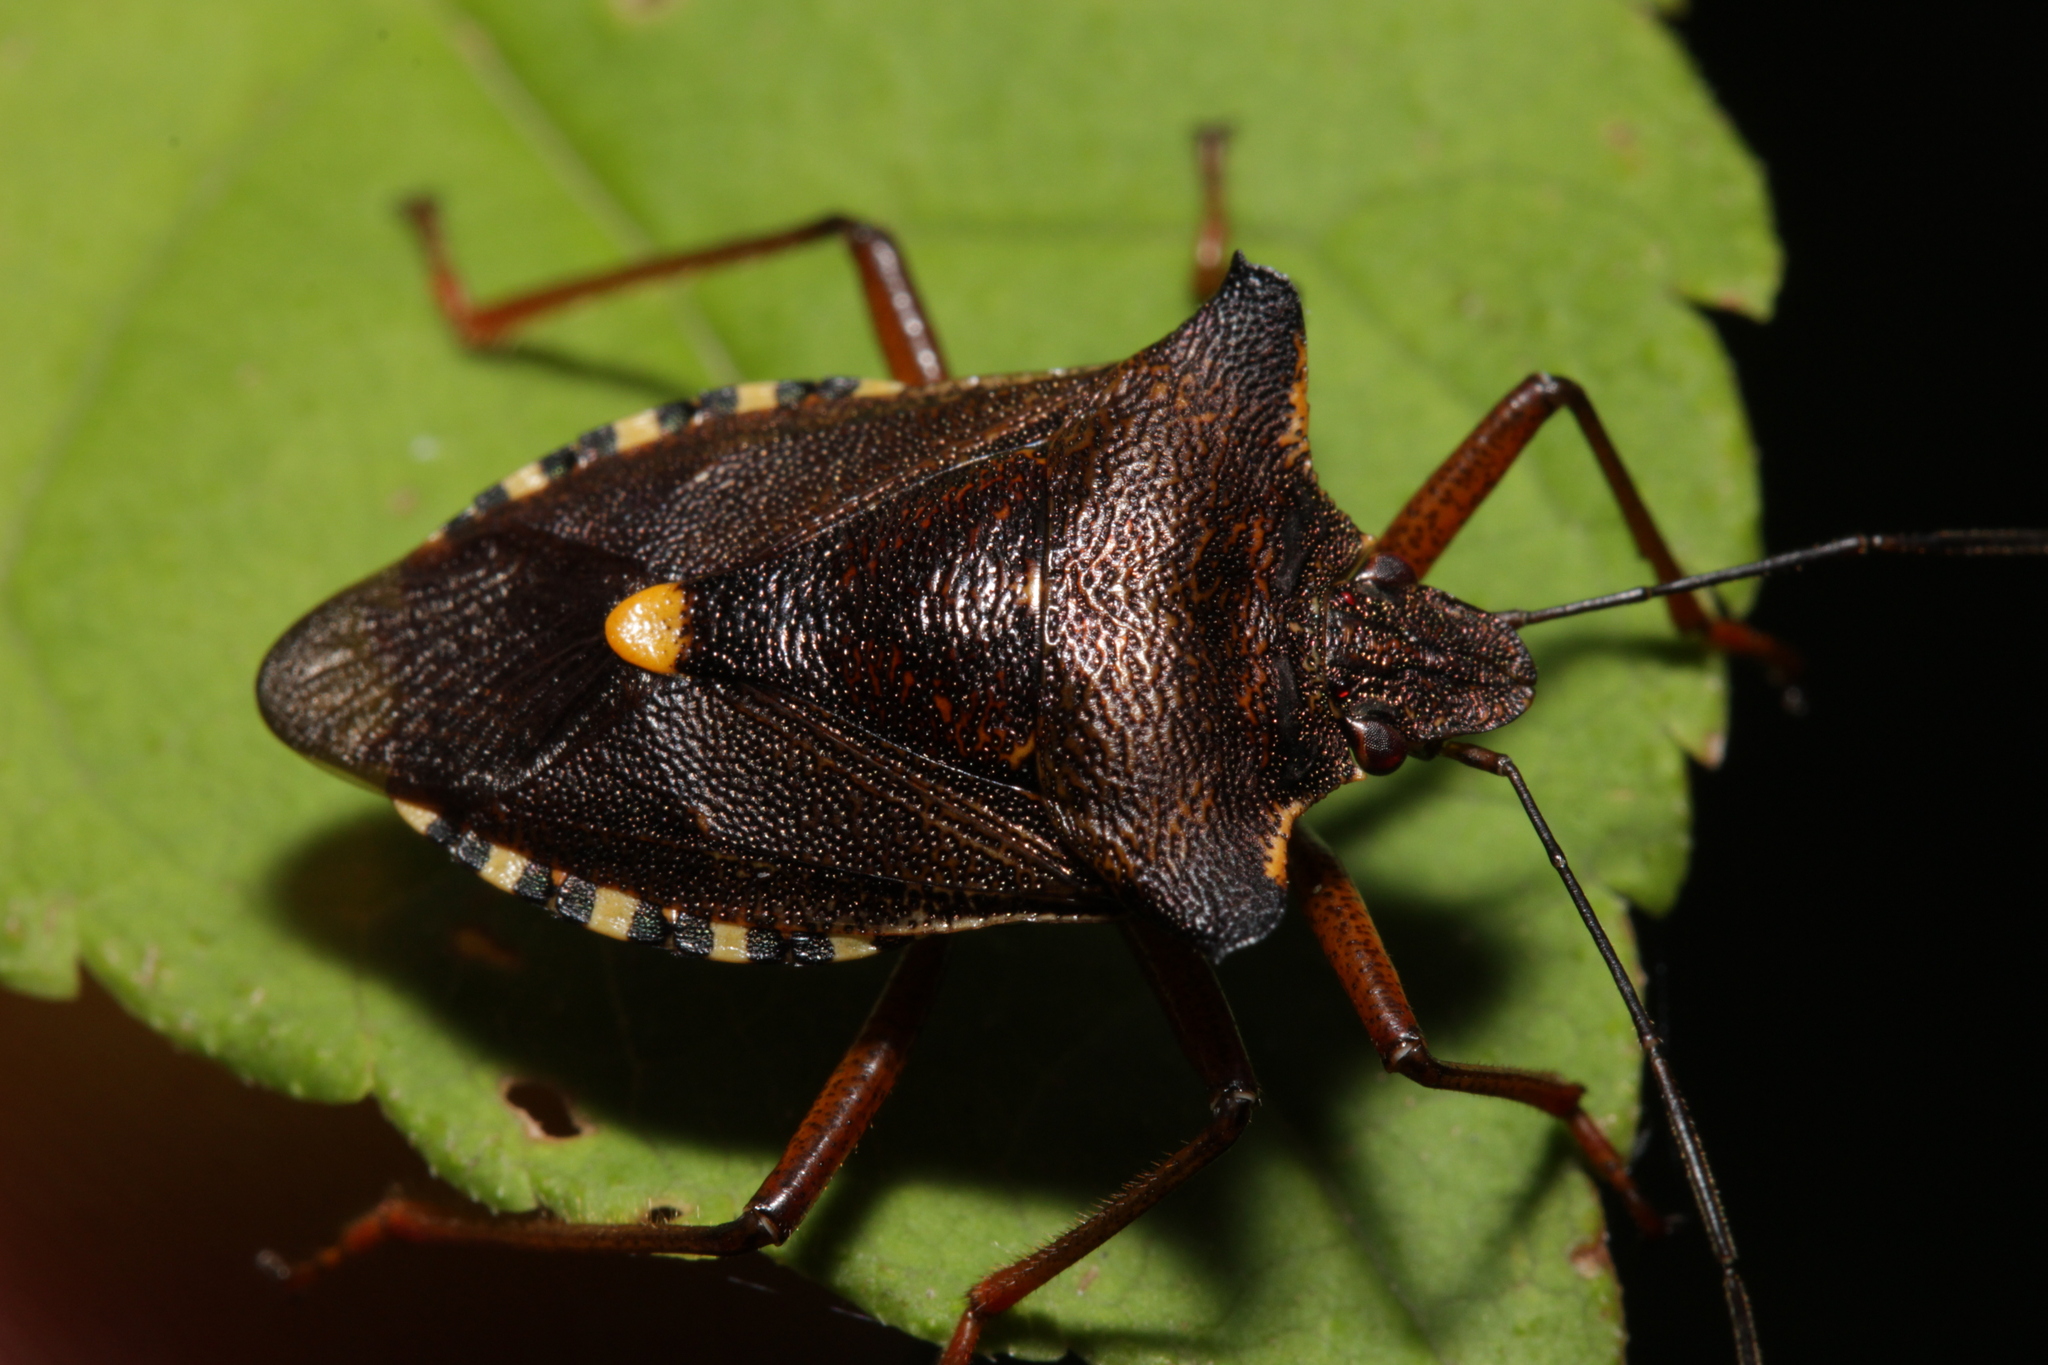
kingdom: Animalia
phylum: Arthropoda
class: Insecta
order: Hemiptera
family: Pentatomidae
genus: Pentatoma
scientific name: Pentatoma rufipes
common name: Forest bug
